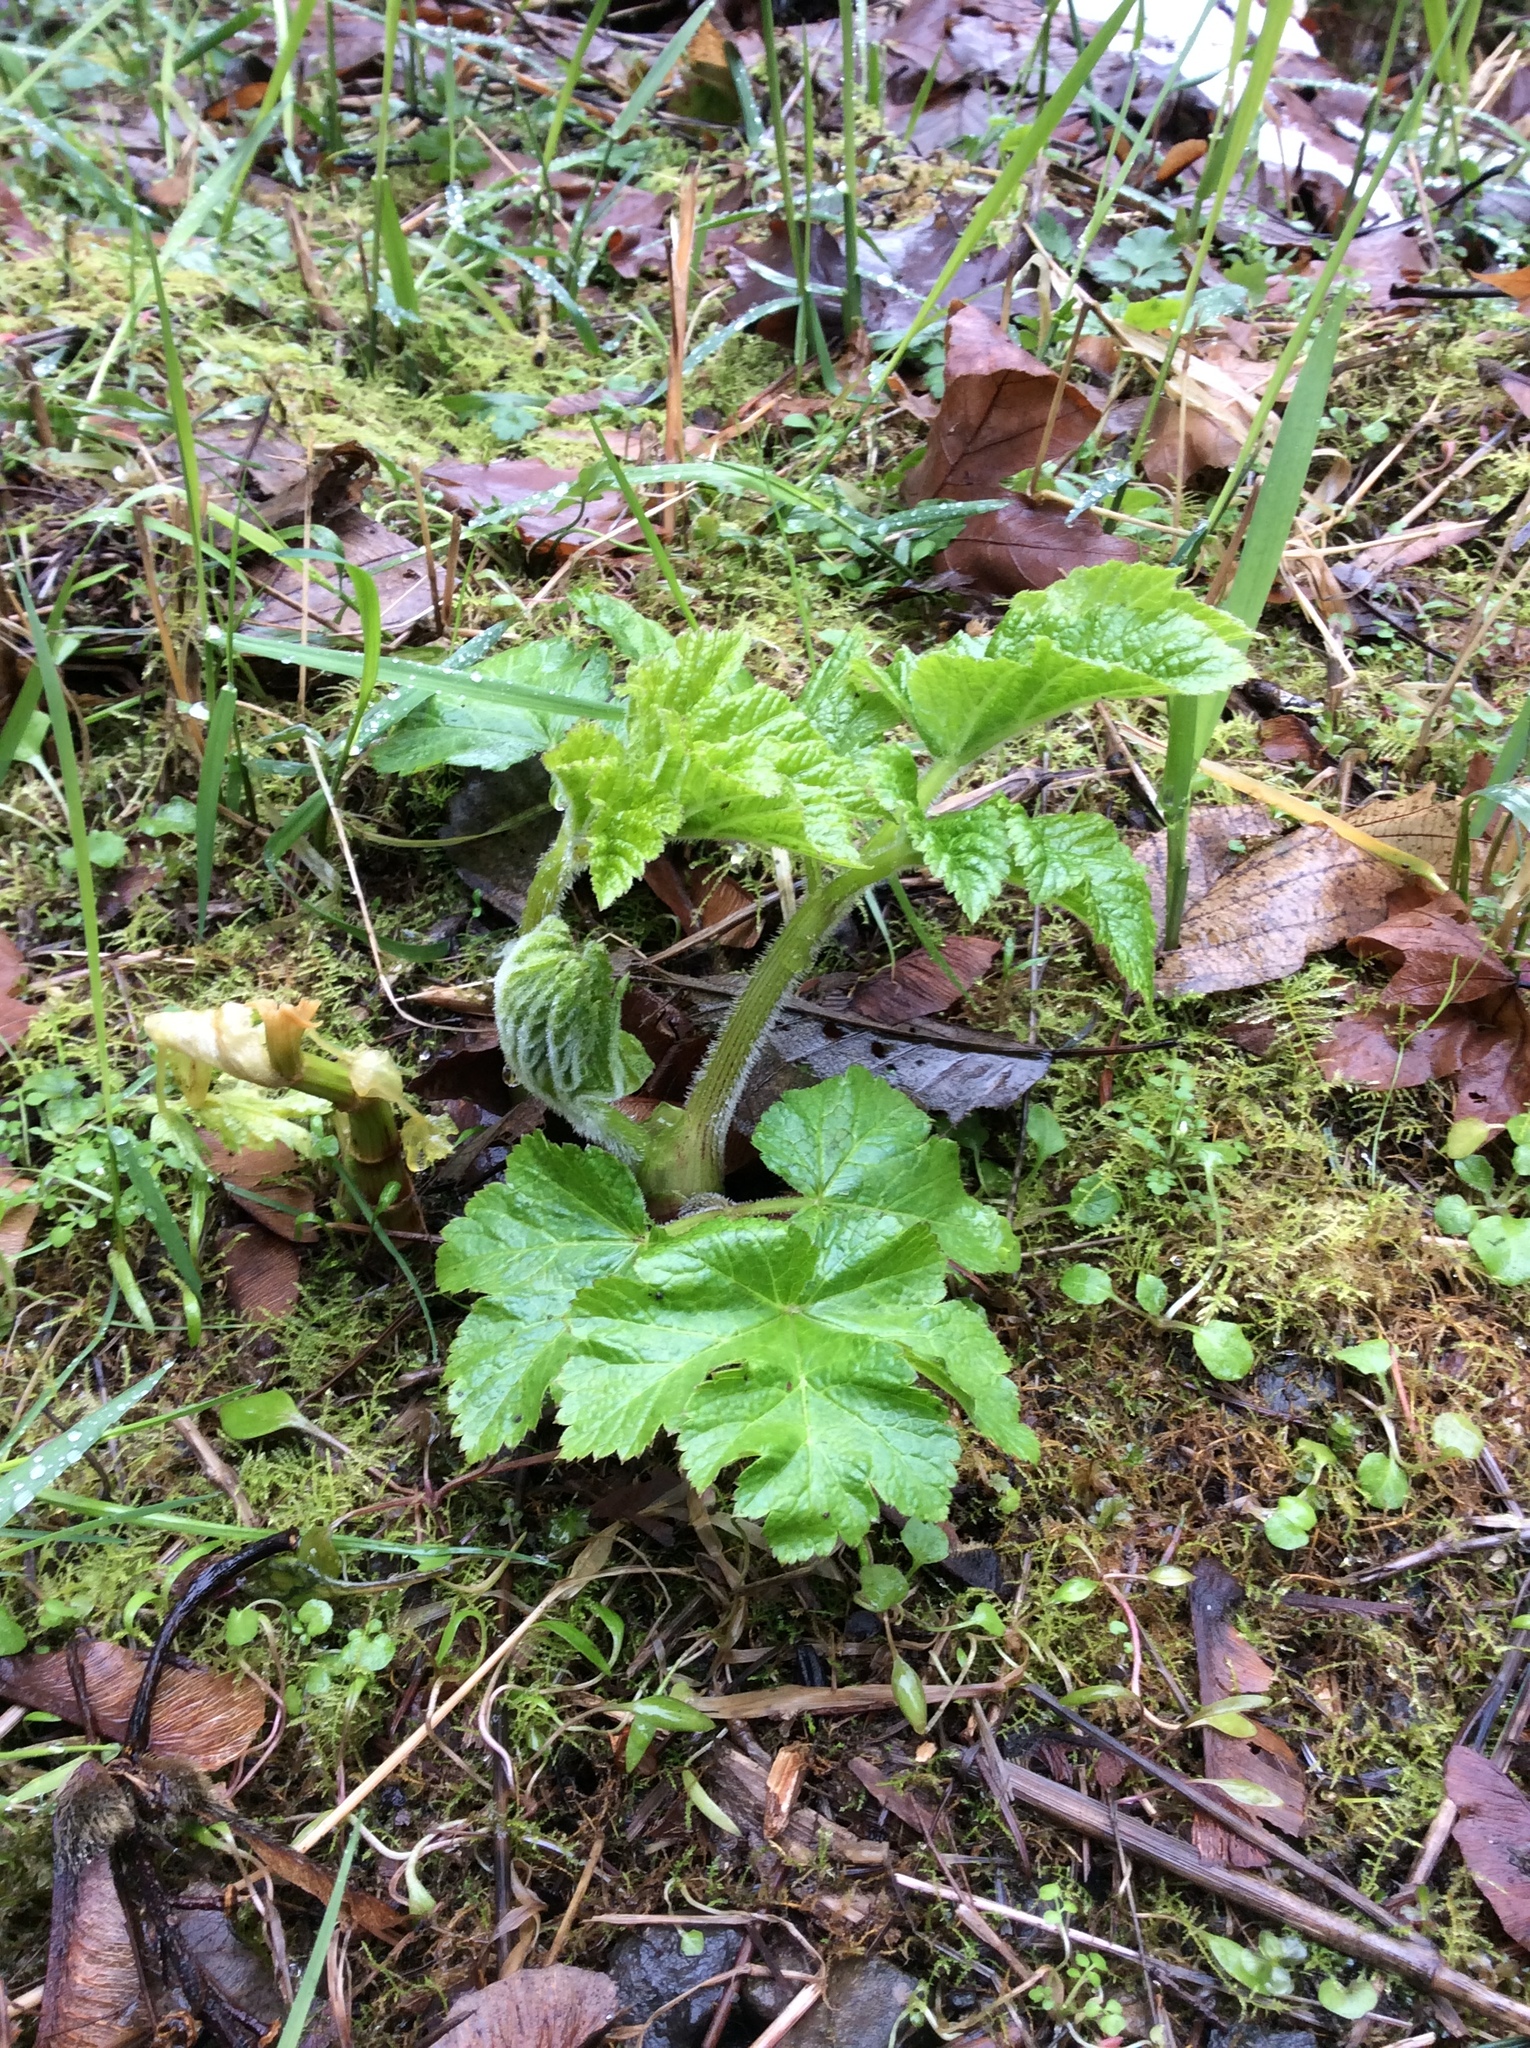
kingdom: Plantae
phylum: Tracheophyta
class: Magnoliopsida
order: Apiales
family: Apiaceae
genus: Heracleum
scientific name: Heracleum maximum
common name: American cow parsnip
